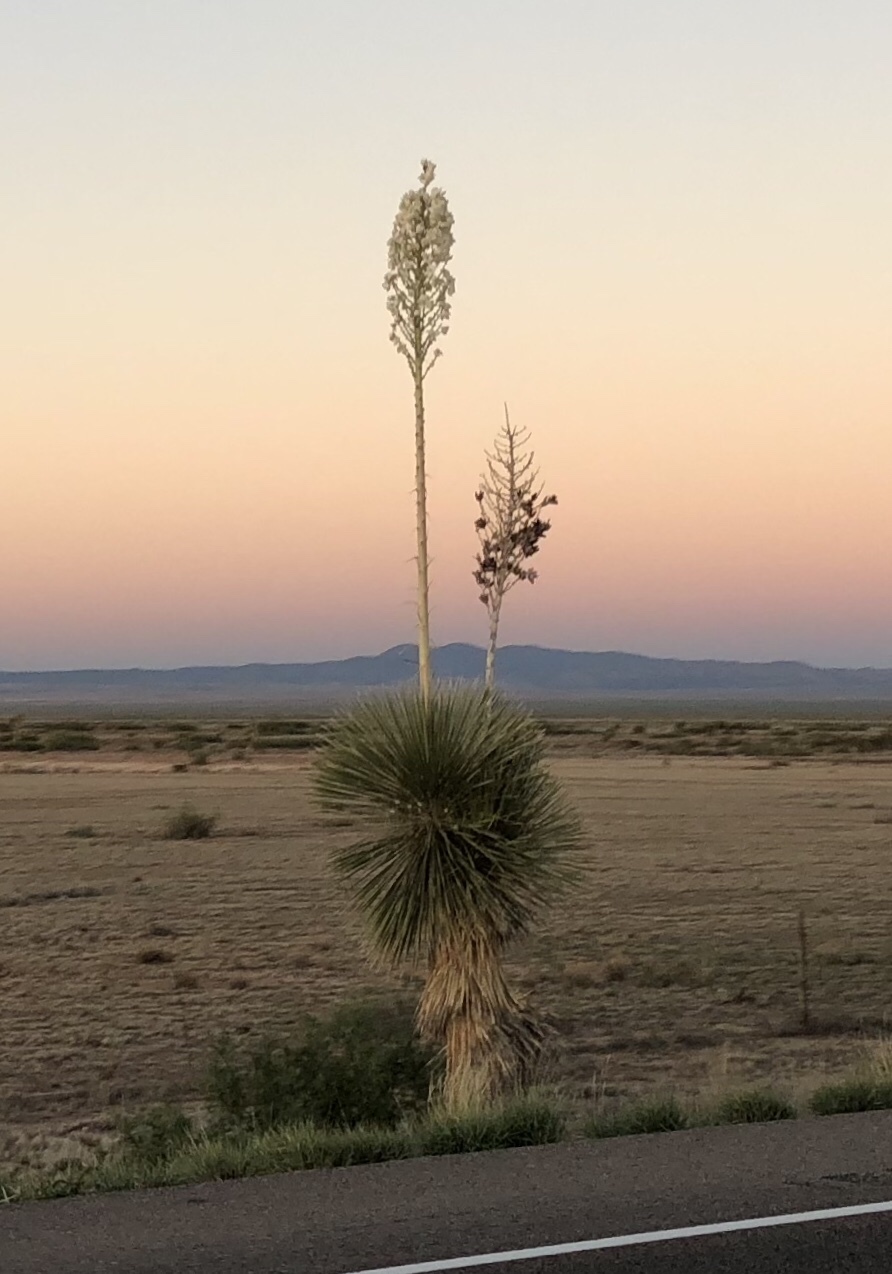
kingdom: Plantae
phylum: Tracheophyta
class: Liliopsida
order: Asparagales
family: Asparagaceae
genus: Yucca
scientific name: Yucca elata
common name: Palmella
